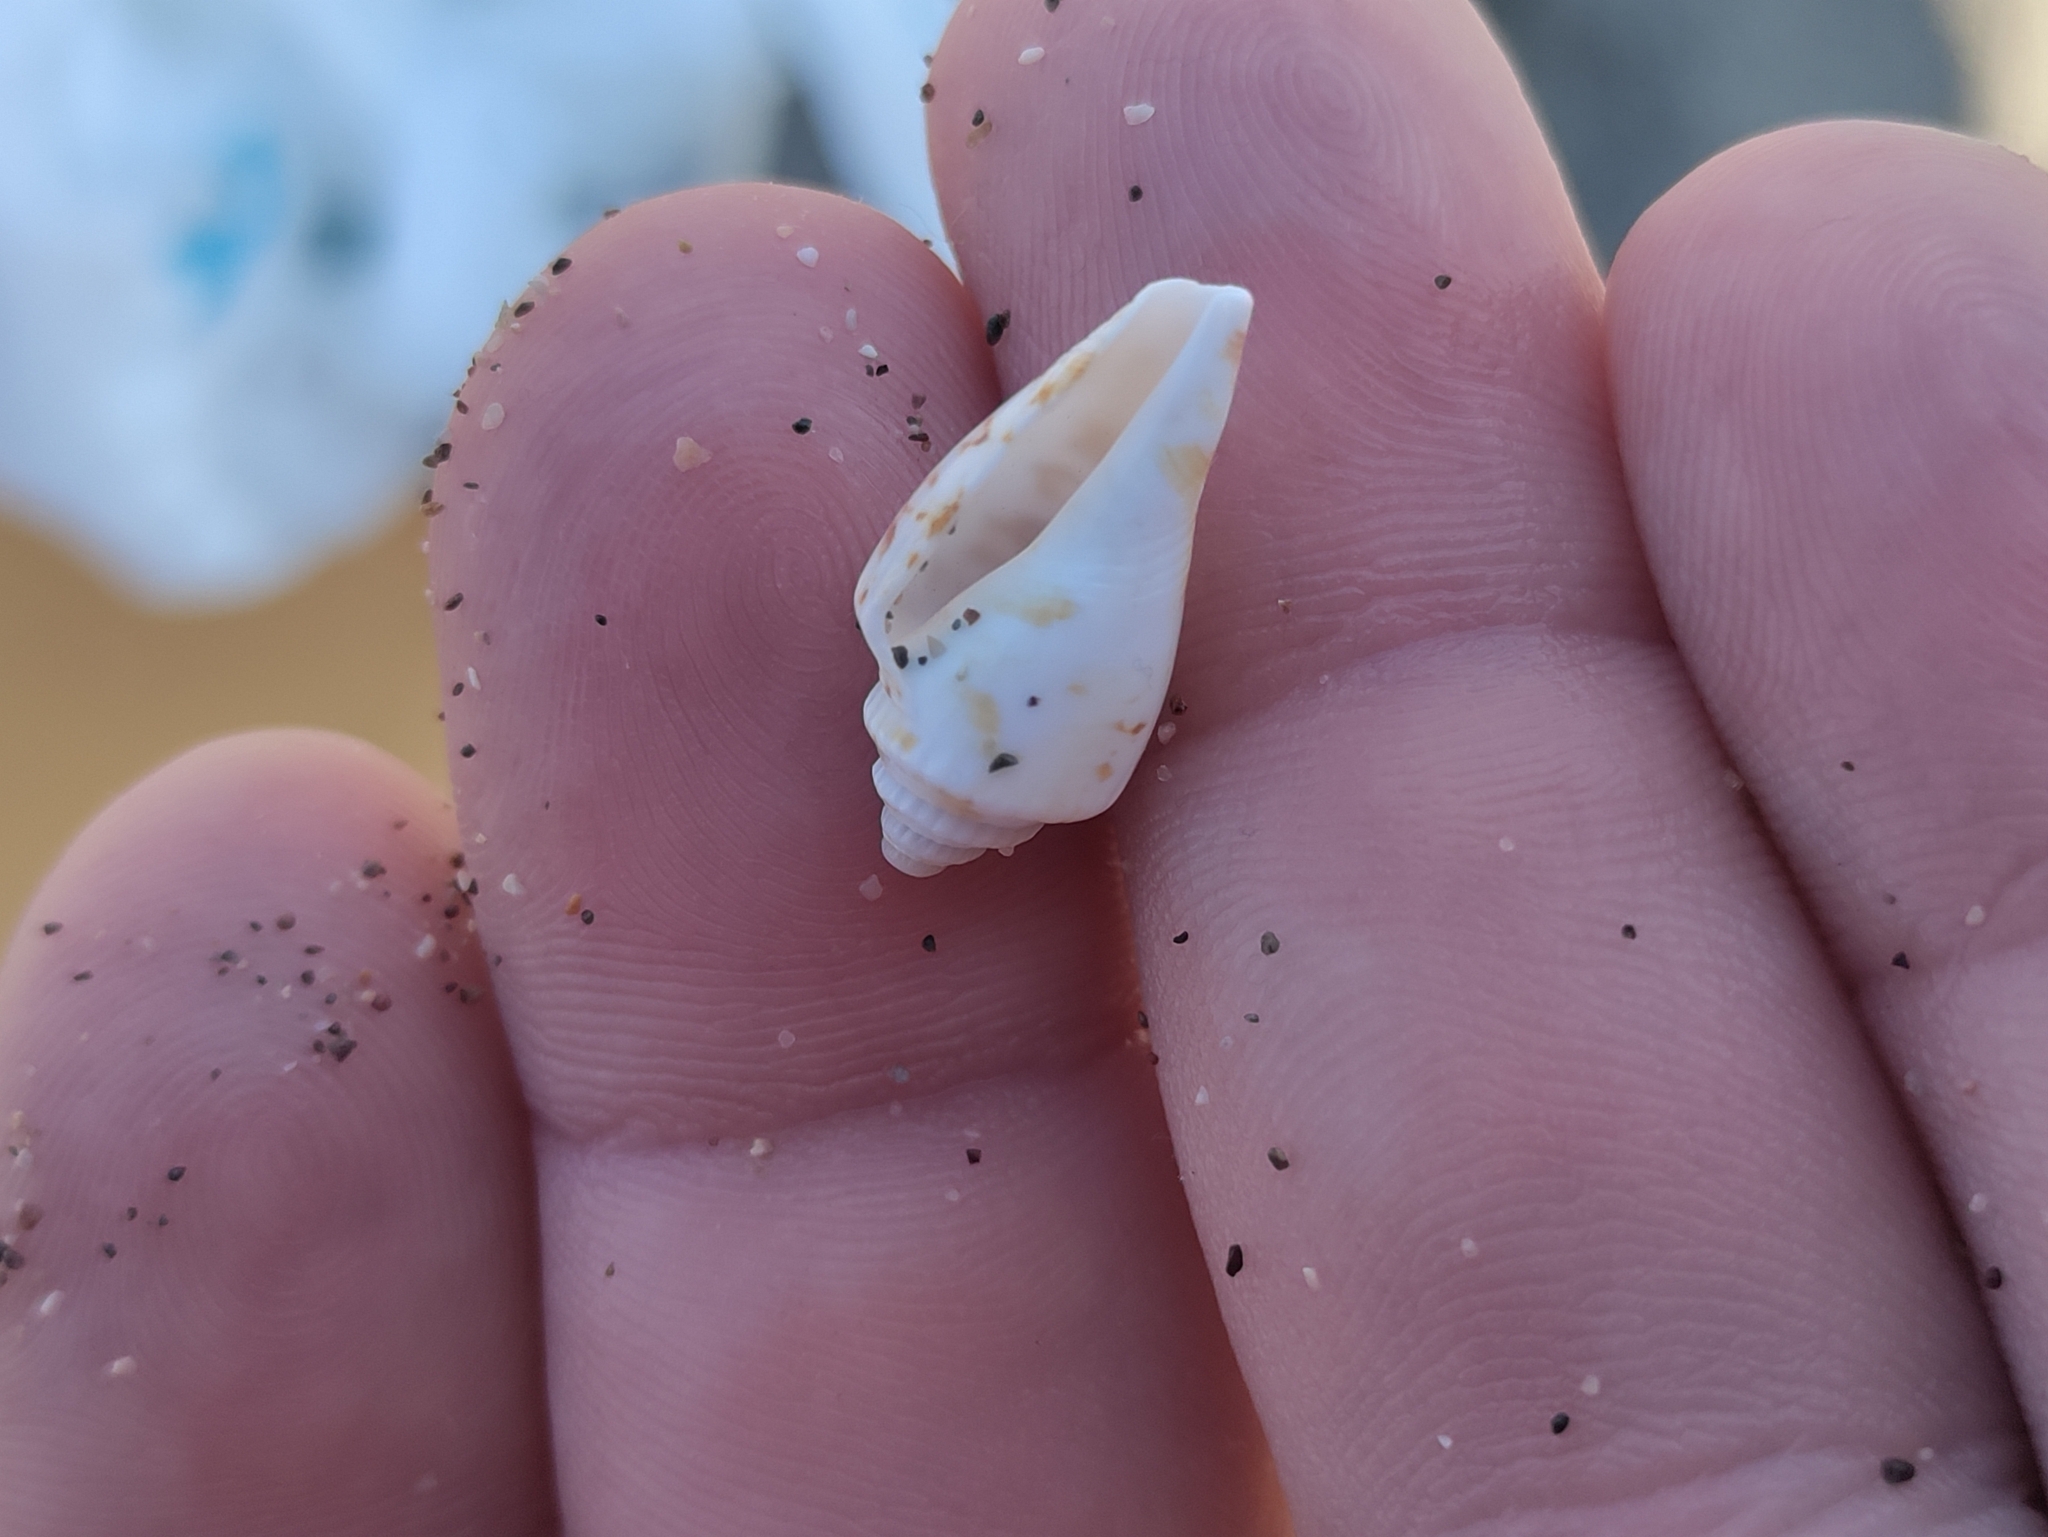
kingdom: Animalia
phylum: Mollusca
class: Gastropoda
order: Littorinimorpha
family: Strombidae
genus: Conomurex
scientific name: Conomurex persicus
